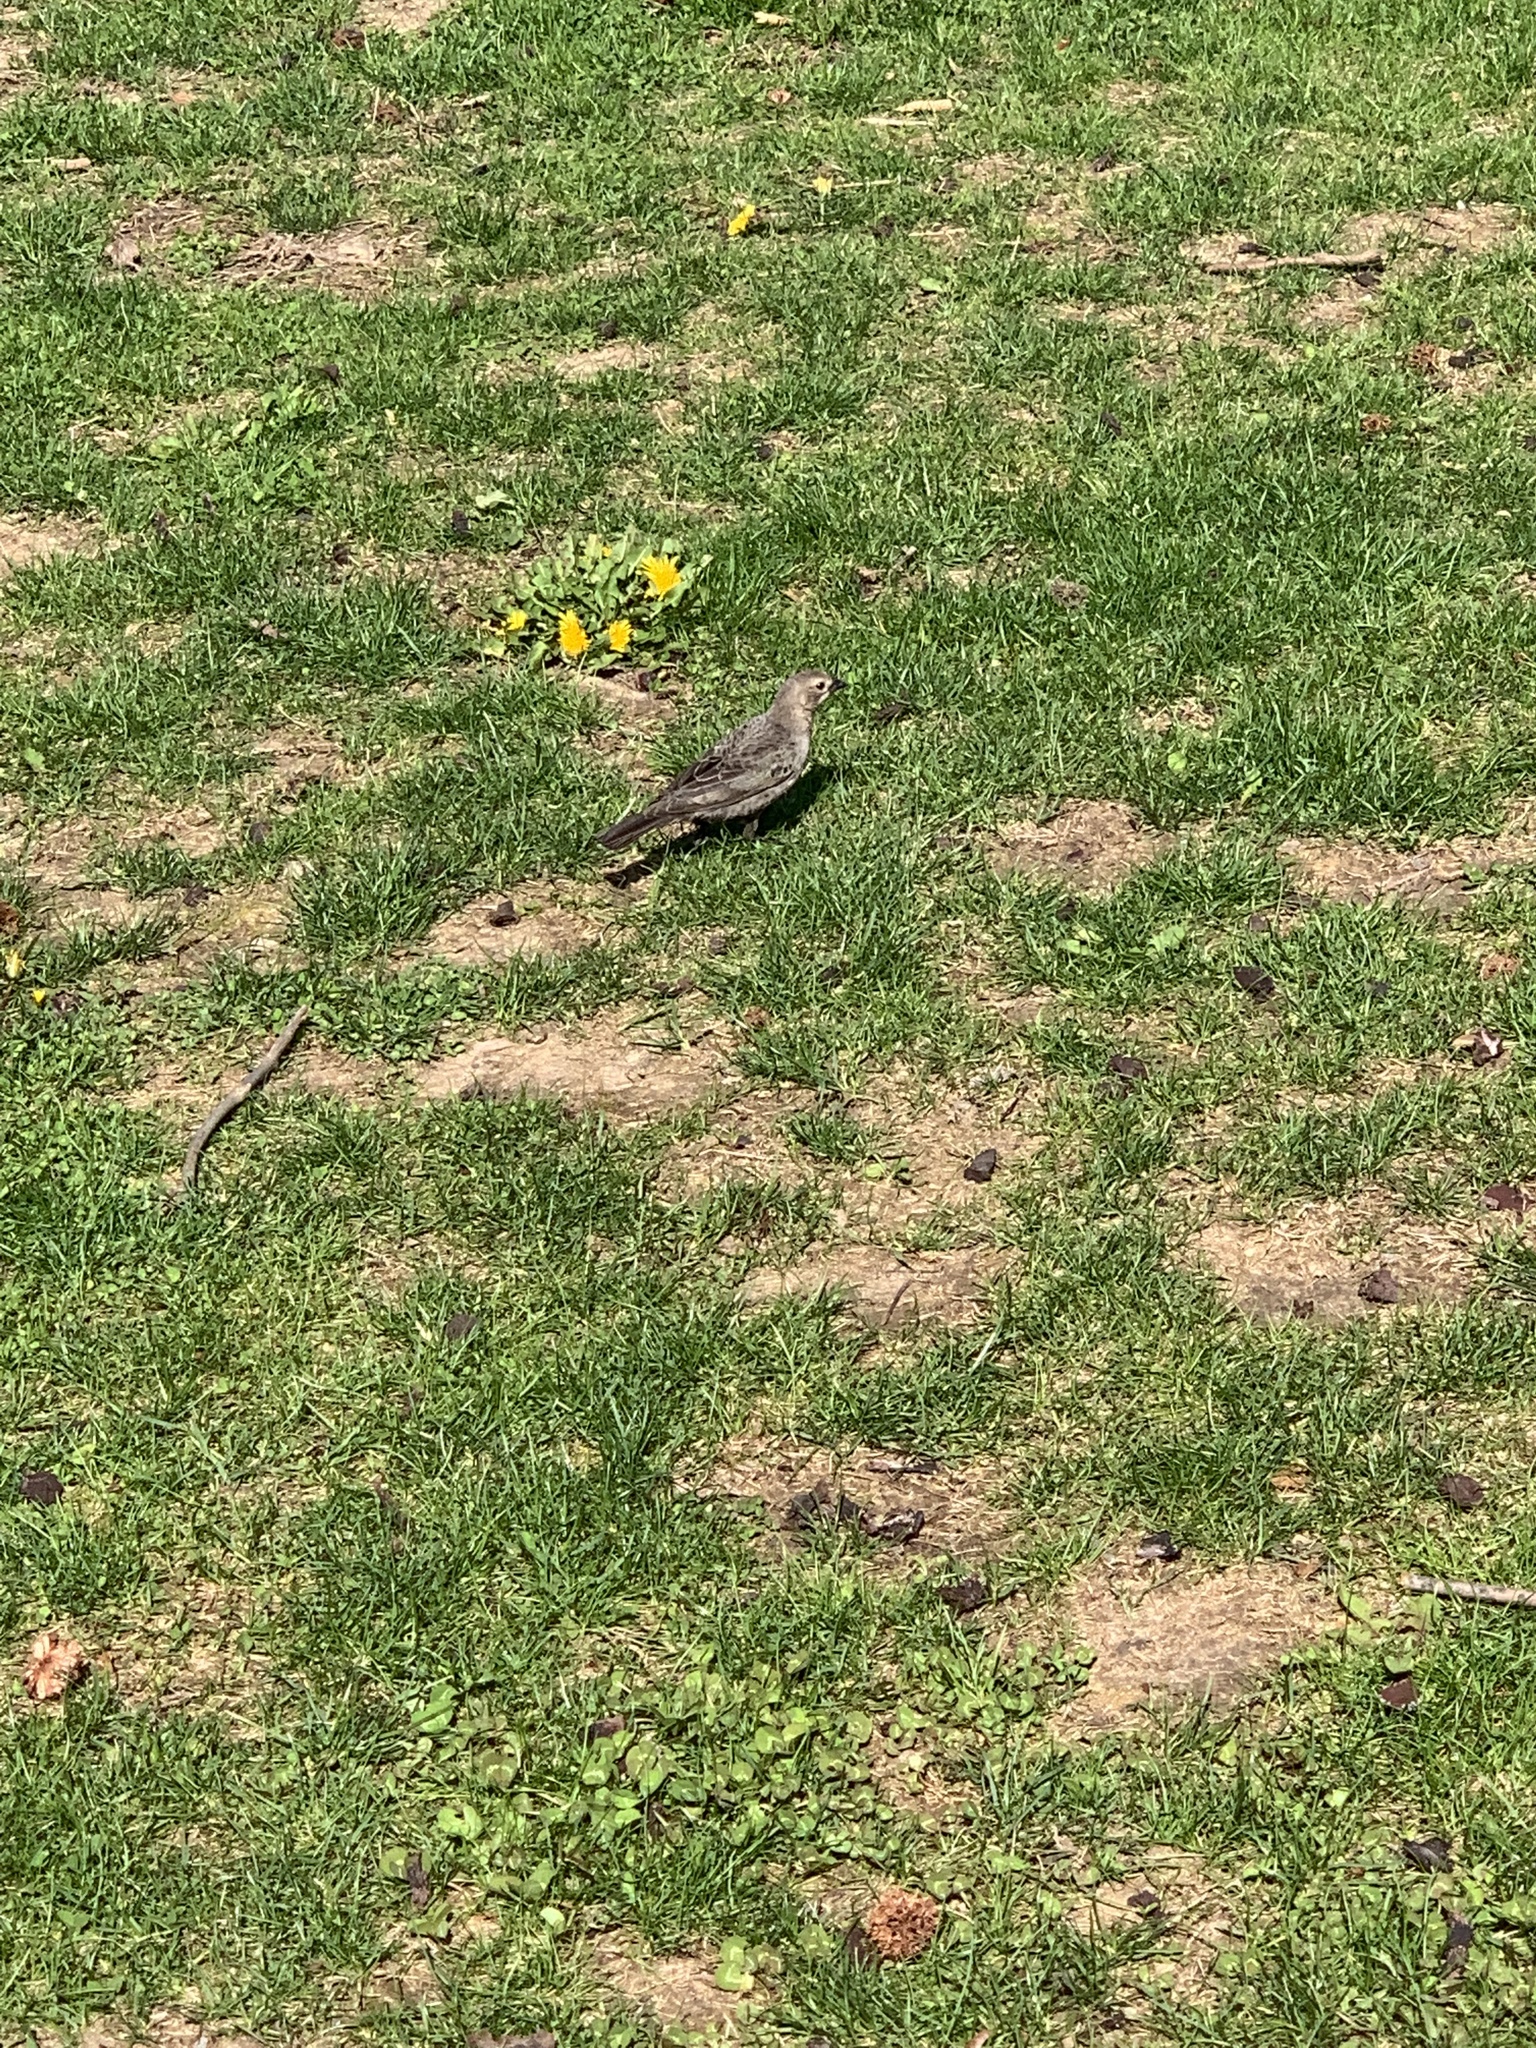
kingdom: Animalia
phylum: Chordata
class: Aves
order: Passeriformes
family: Icteridae
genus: Molothrus
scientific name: Molothrus ater
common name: Brown-headed cowbird
